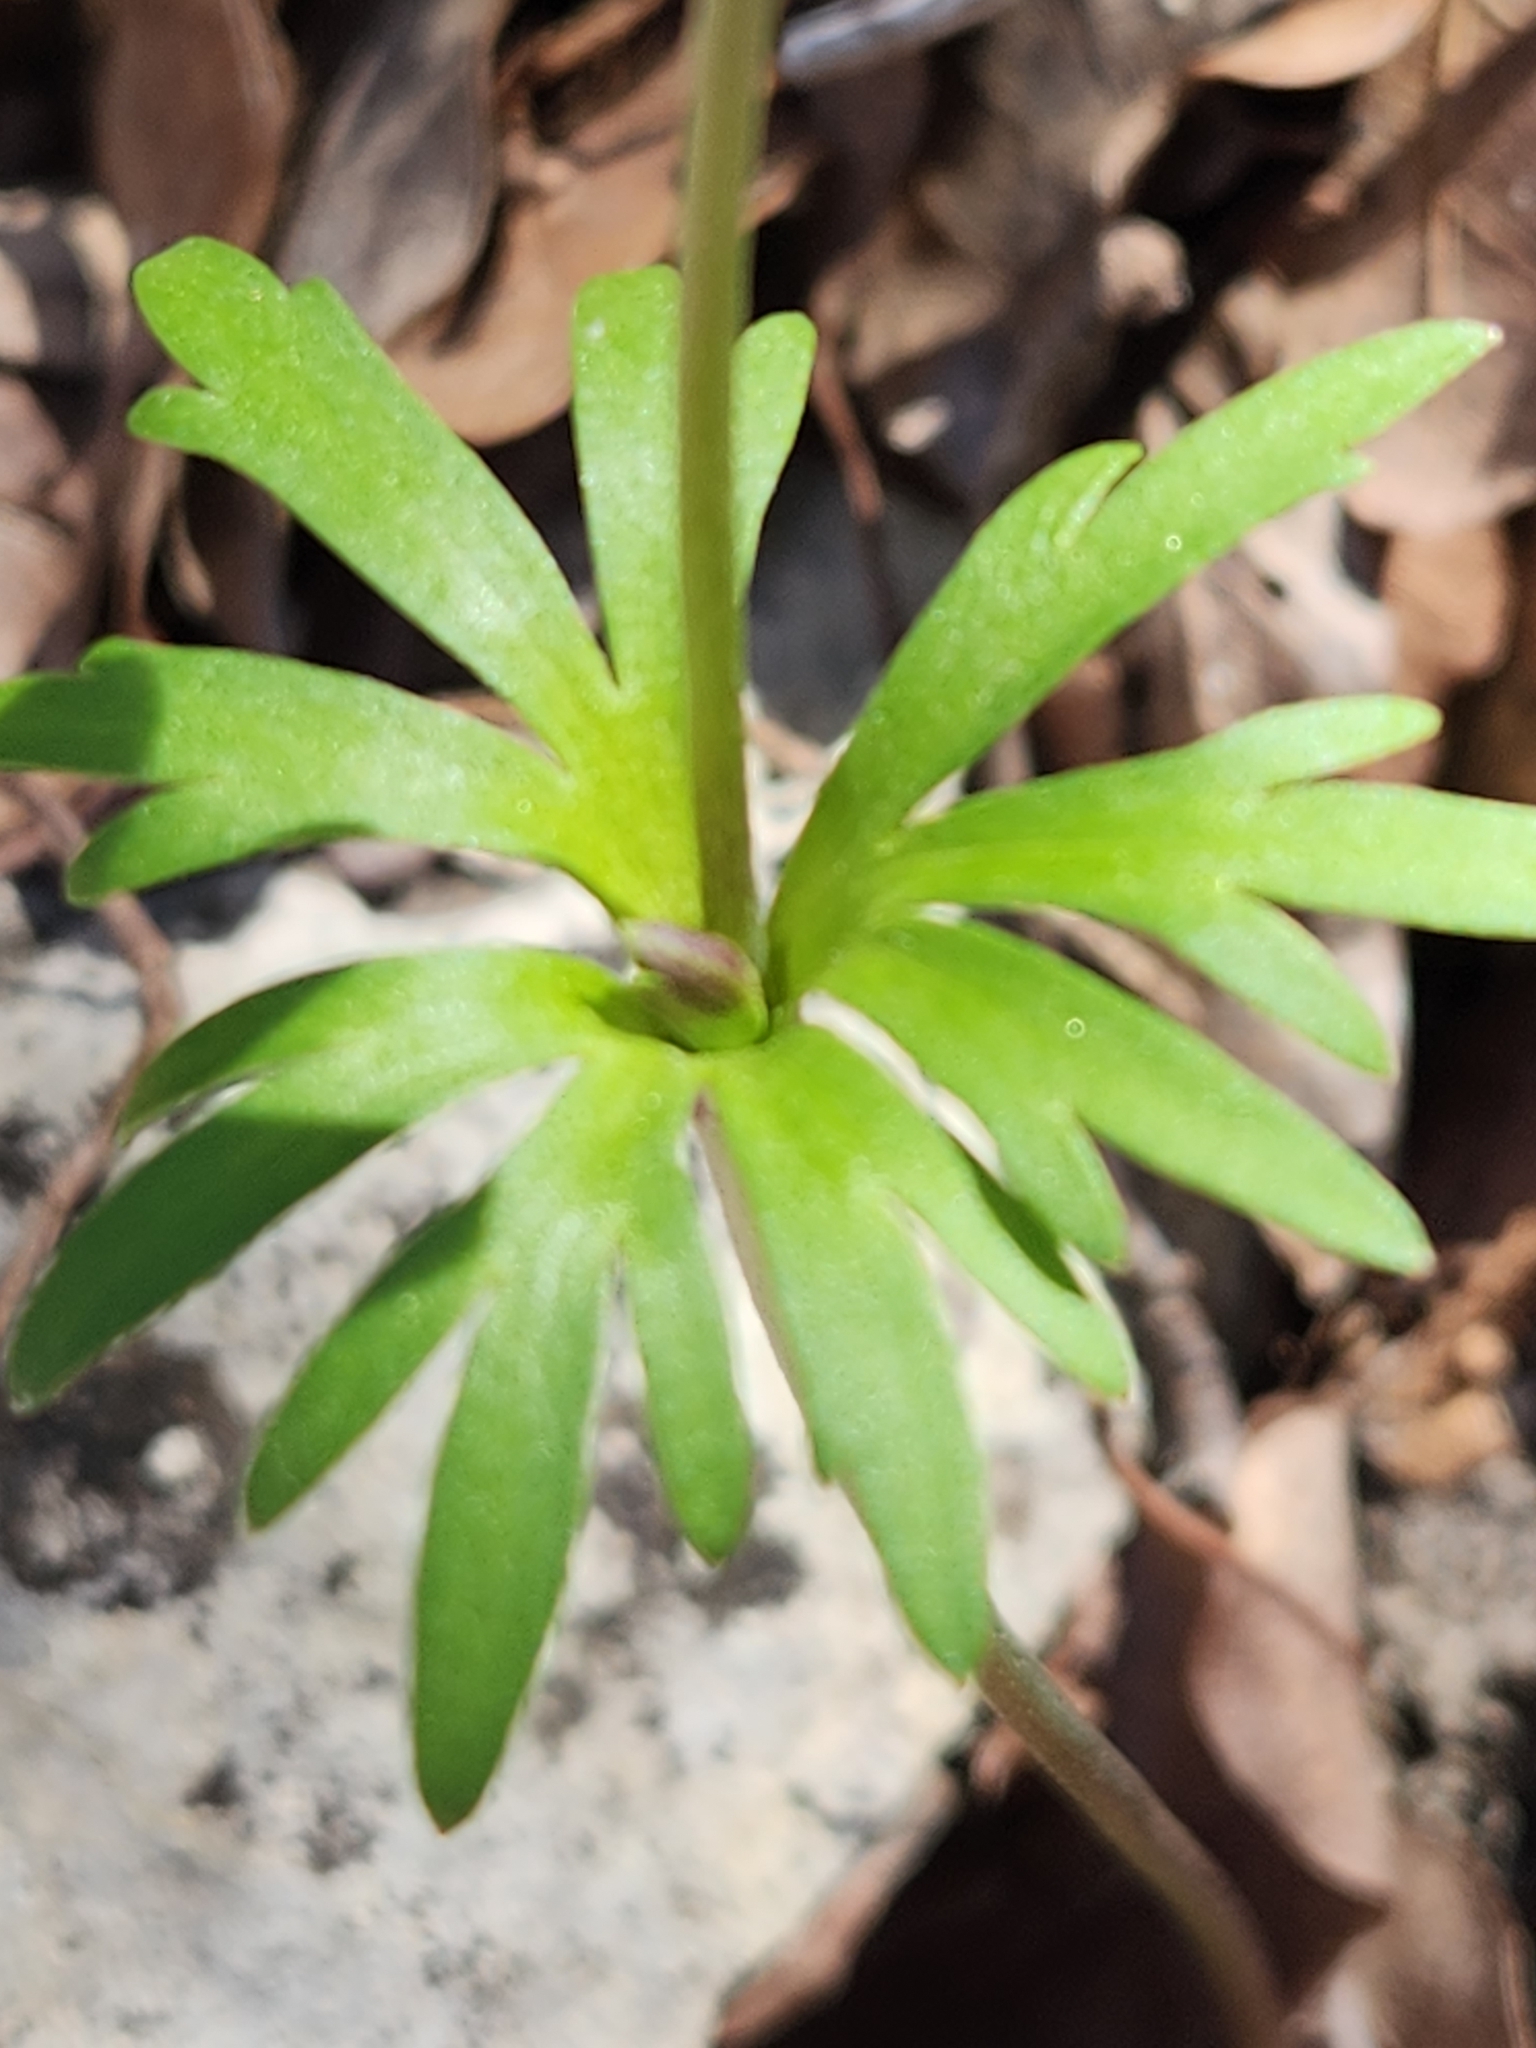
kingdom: Plantae
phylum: Tracheophyta
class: Magnoliopsida
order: Ranunculales
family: Ranunculaceae
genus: Anemone
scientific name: Anemone edwardsiana
